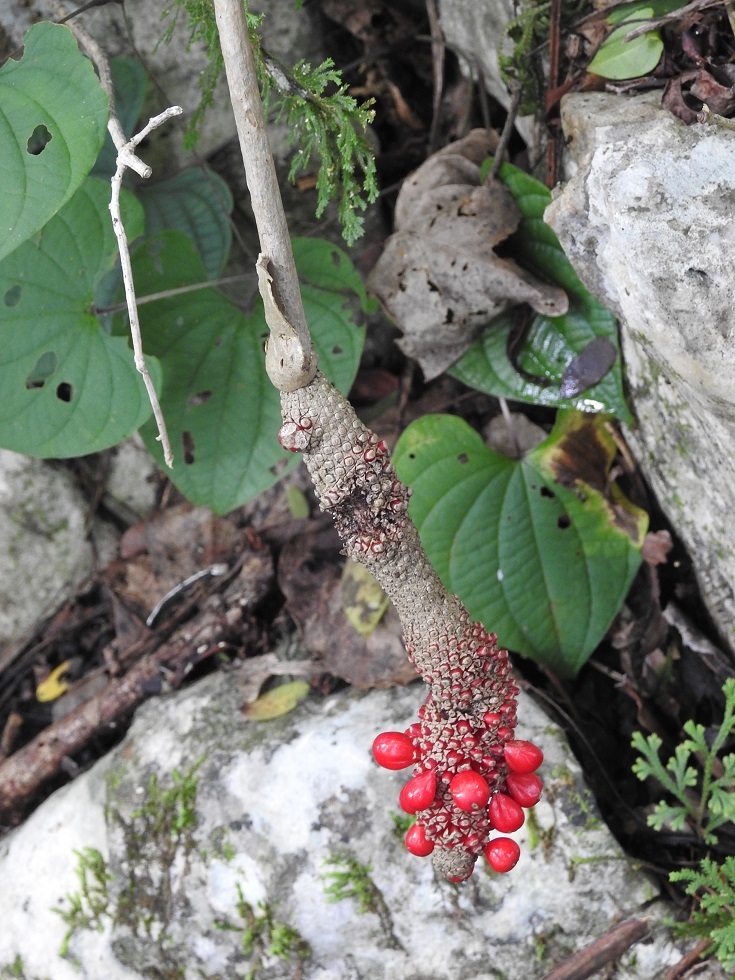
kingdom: Plantae
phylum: Tracheophyta
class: Liliopsida
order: Alismatales
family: Araceae
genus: Anthurium
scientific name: Anthurium schlechtendalii
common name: Laceleaf
